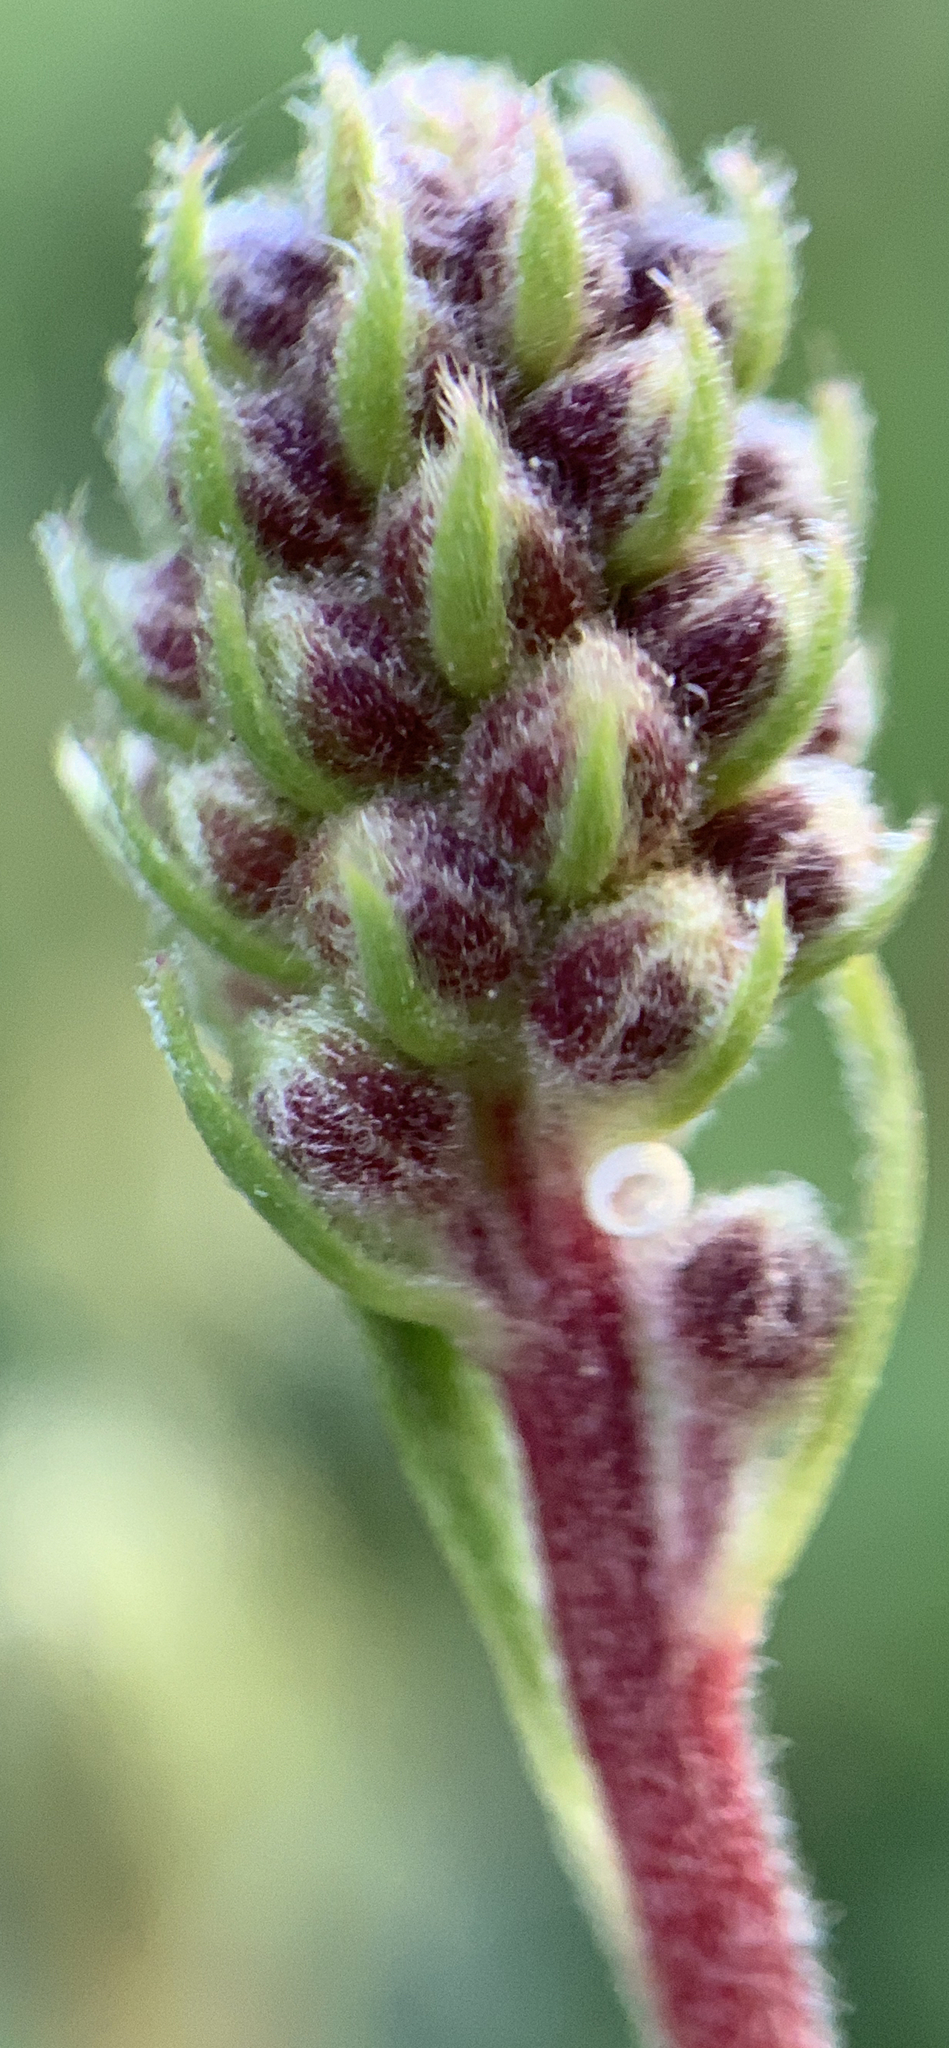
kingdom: Plantae
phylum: Tracheophyta
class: Magnoliopsida
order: Rosales
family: Rosaceae
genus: Petrophytum
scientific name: Petrophytum caespitosum
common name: Mat rockspirea
